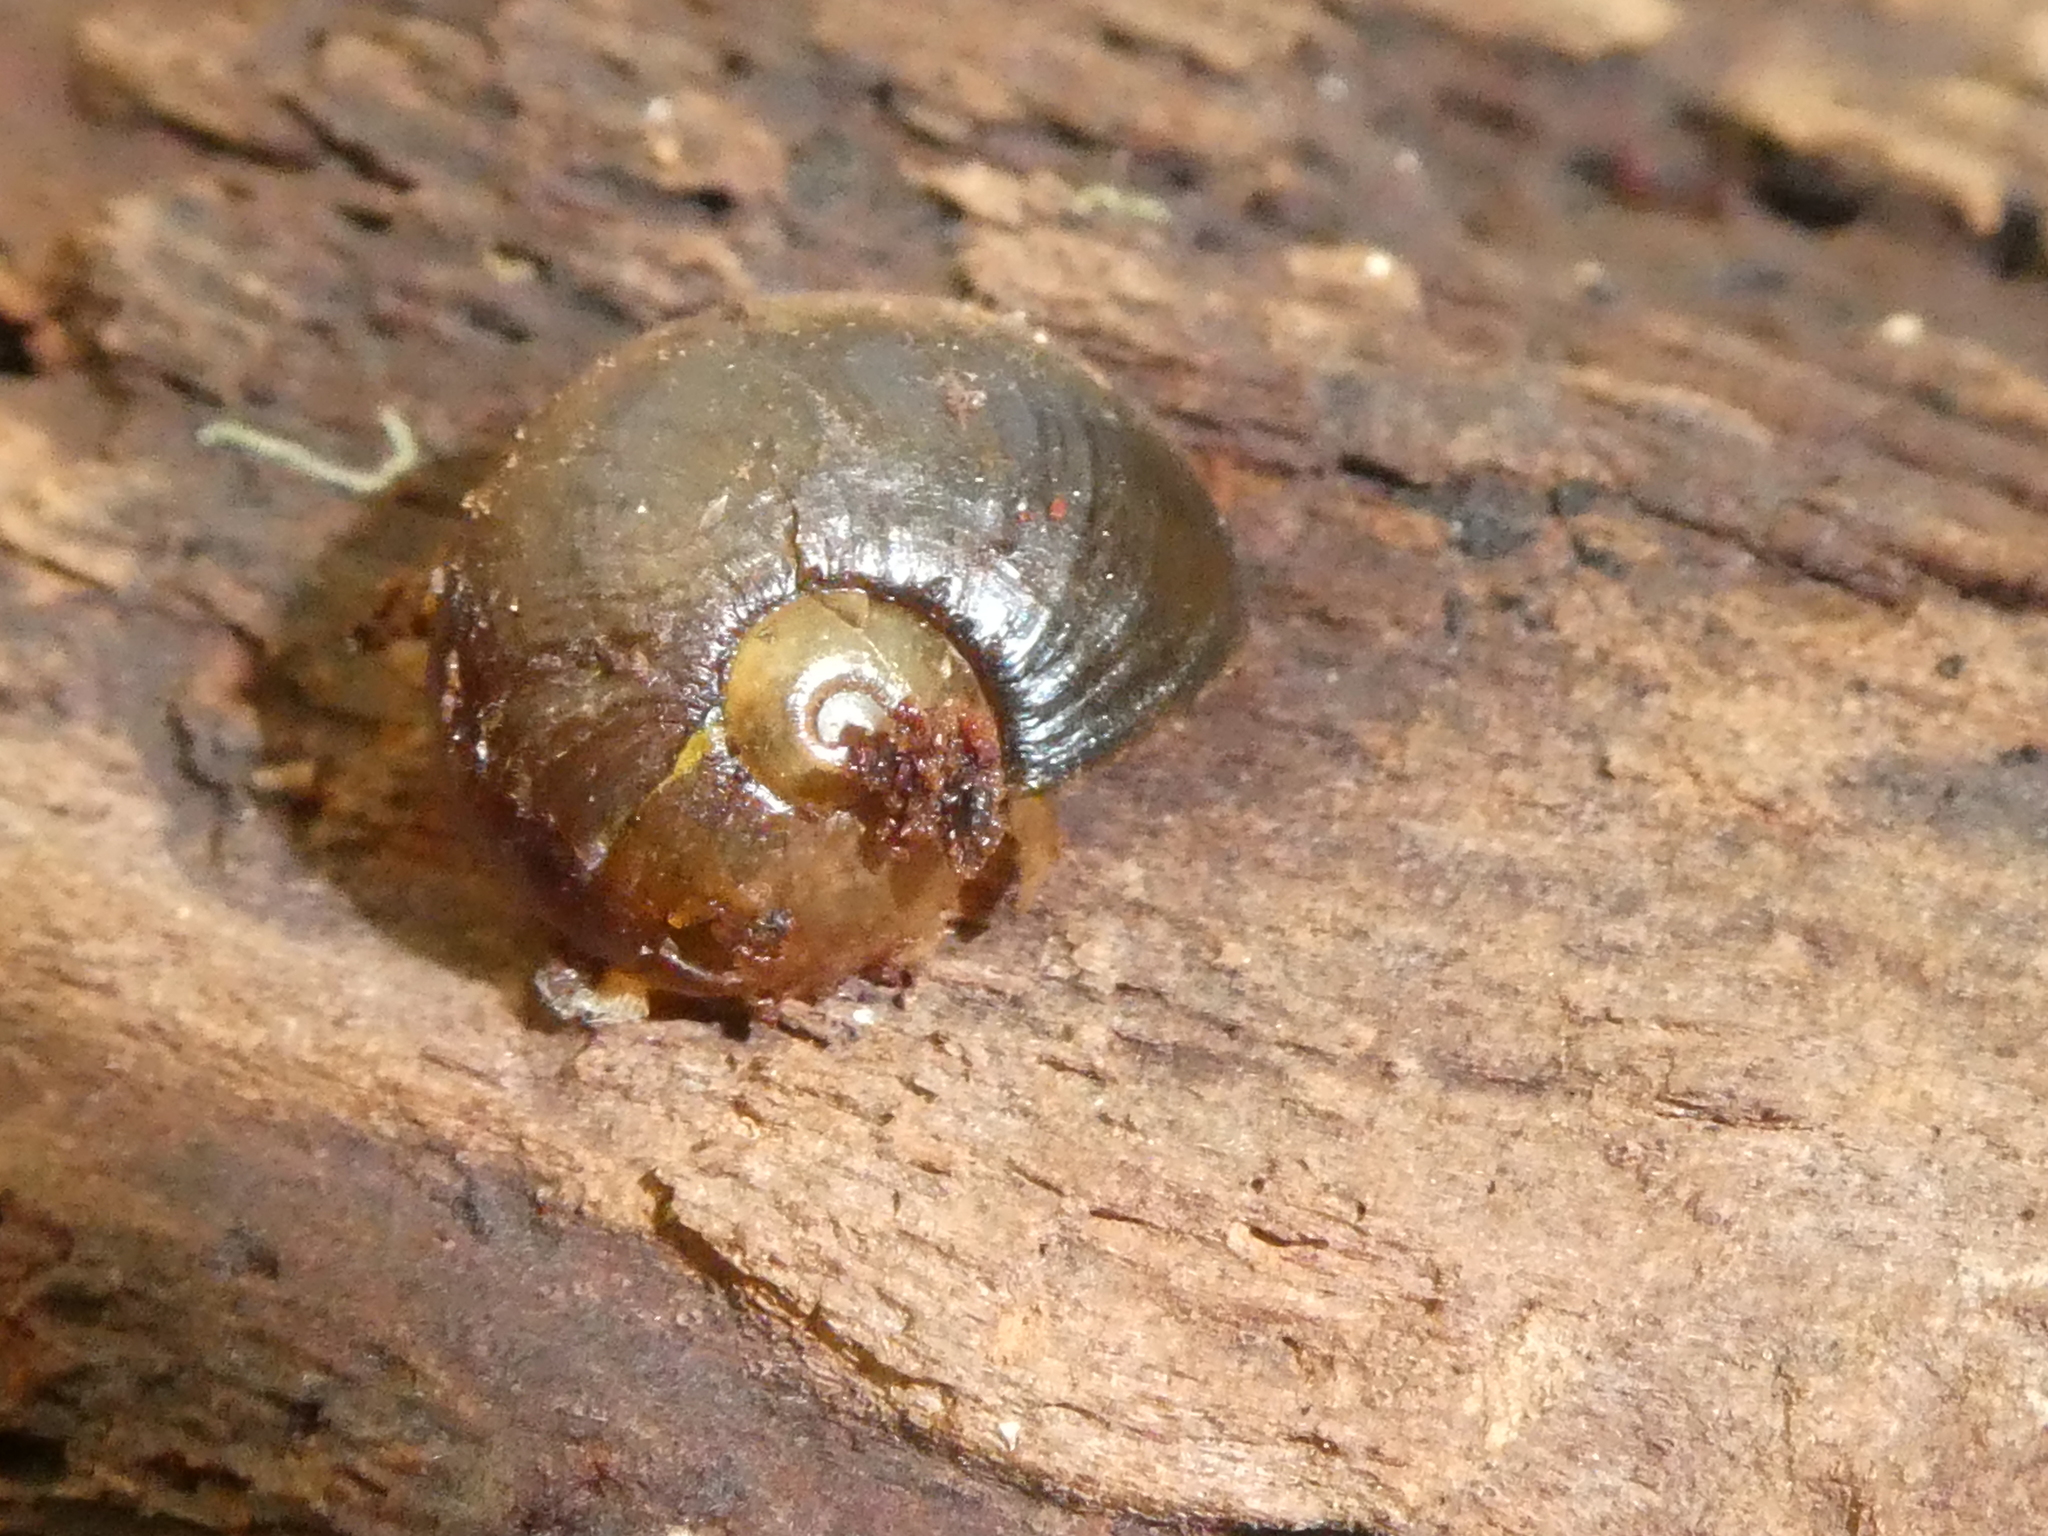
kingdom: Animalia
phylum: Mollusca
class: Gastropoda
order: Stylommatophora
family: Rhytididae
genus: Wainuia
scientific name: Wainuia nasuta
